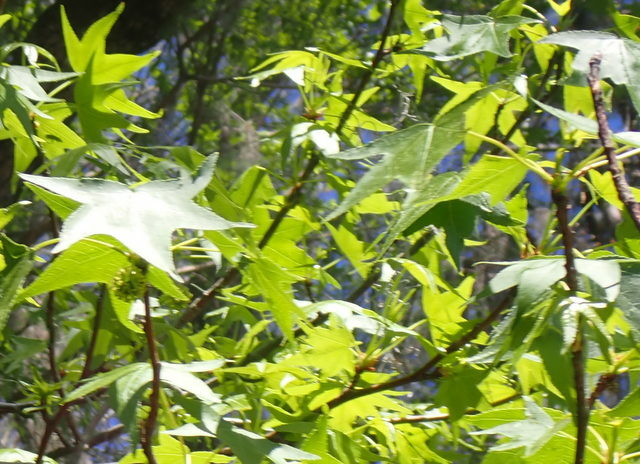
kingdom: Plantae
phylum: Tracheophyta
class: Magnoliopsida
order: Saxifragales
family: Altingiaceae
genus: Liquidambar
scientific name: Liquidambar styraciflua
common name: Sweet gum
